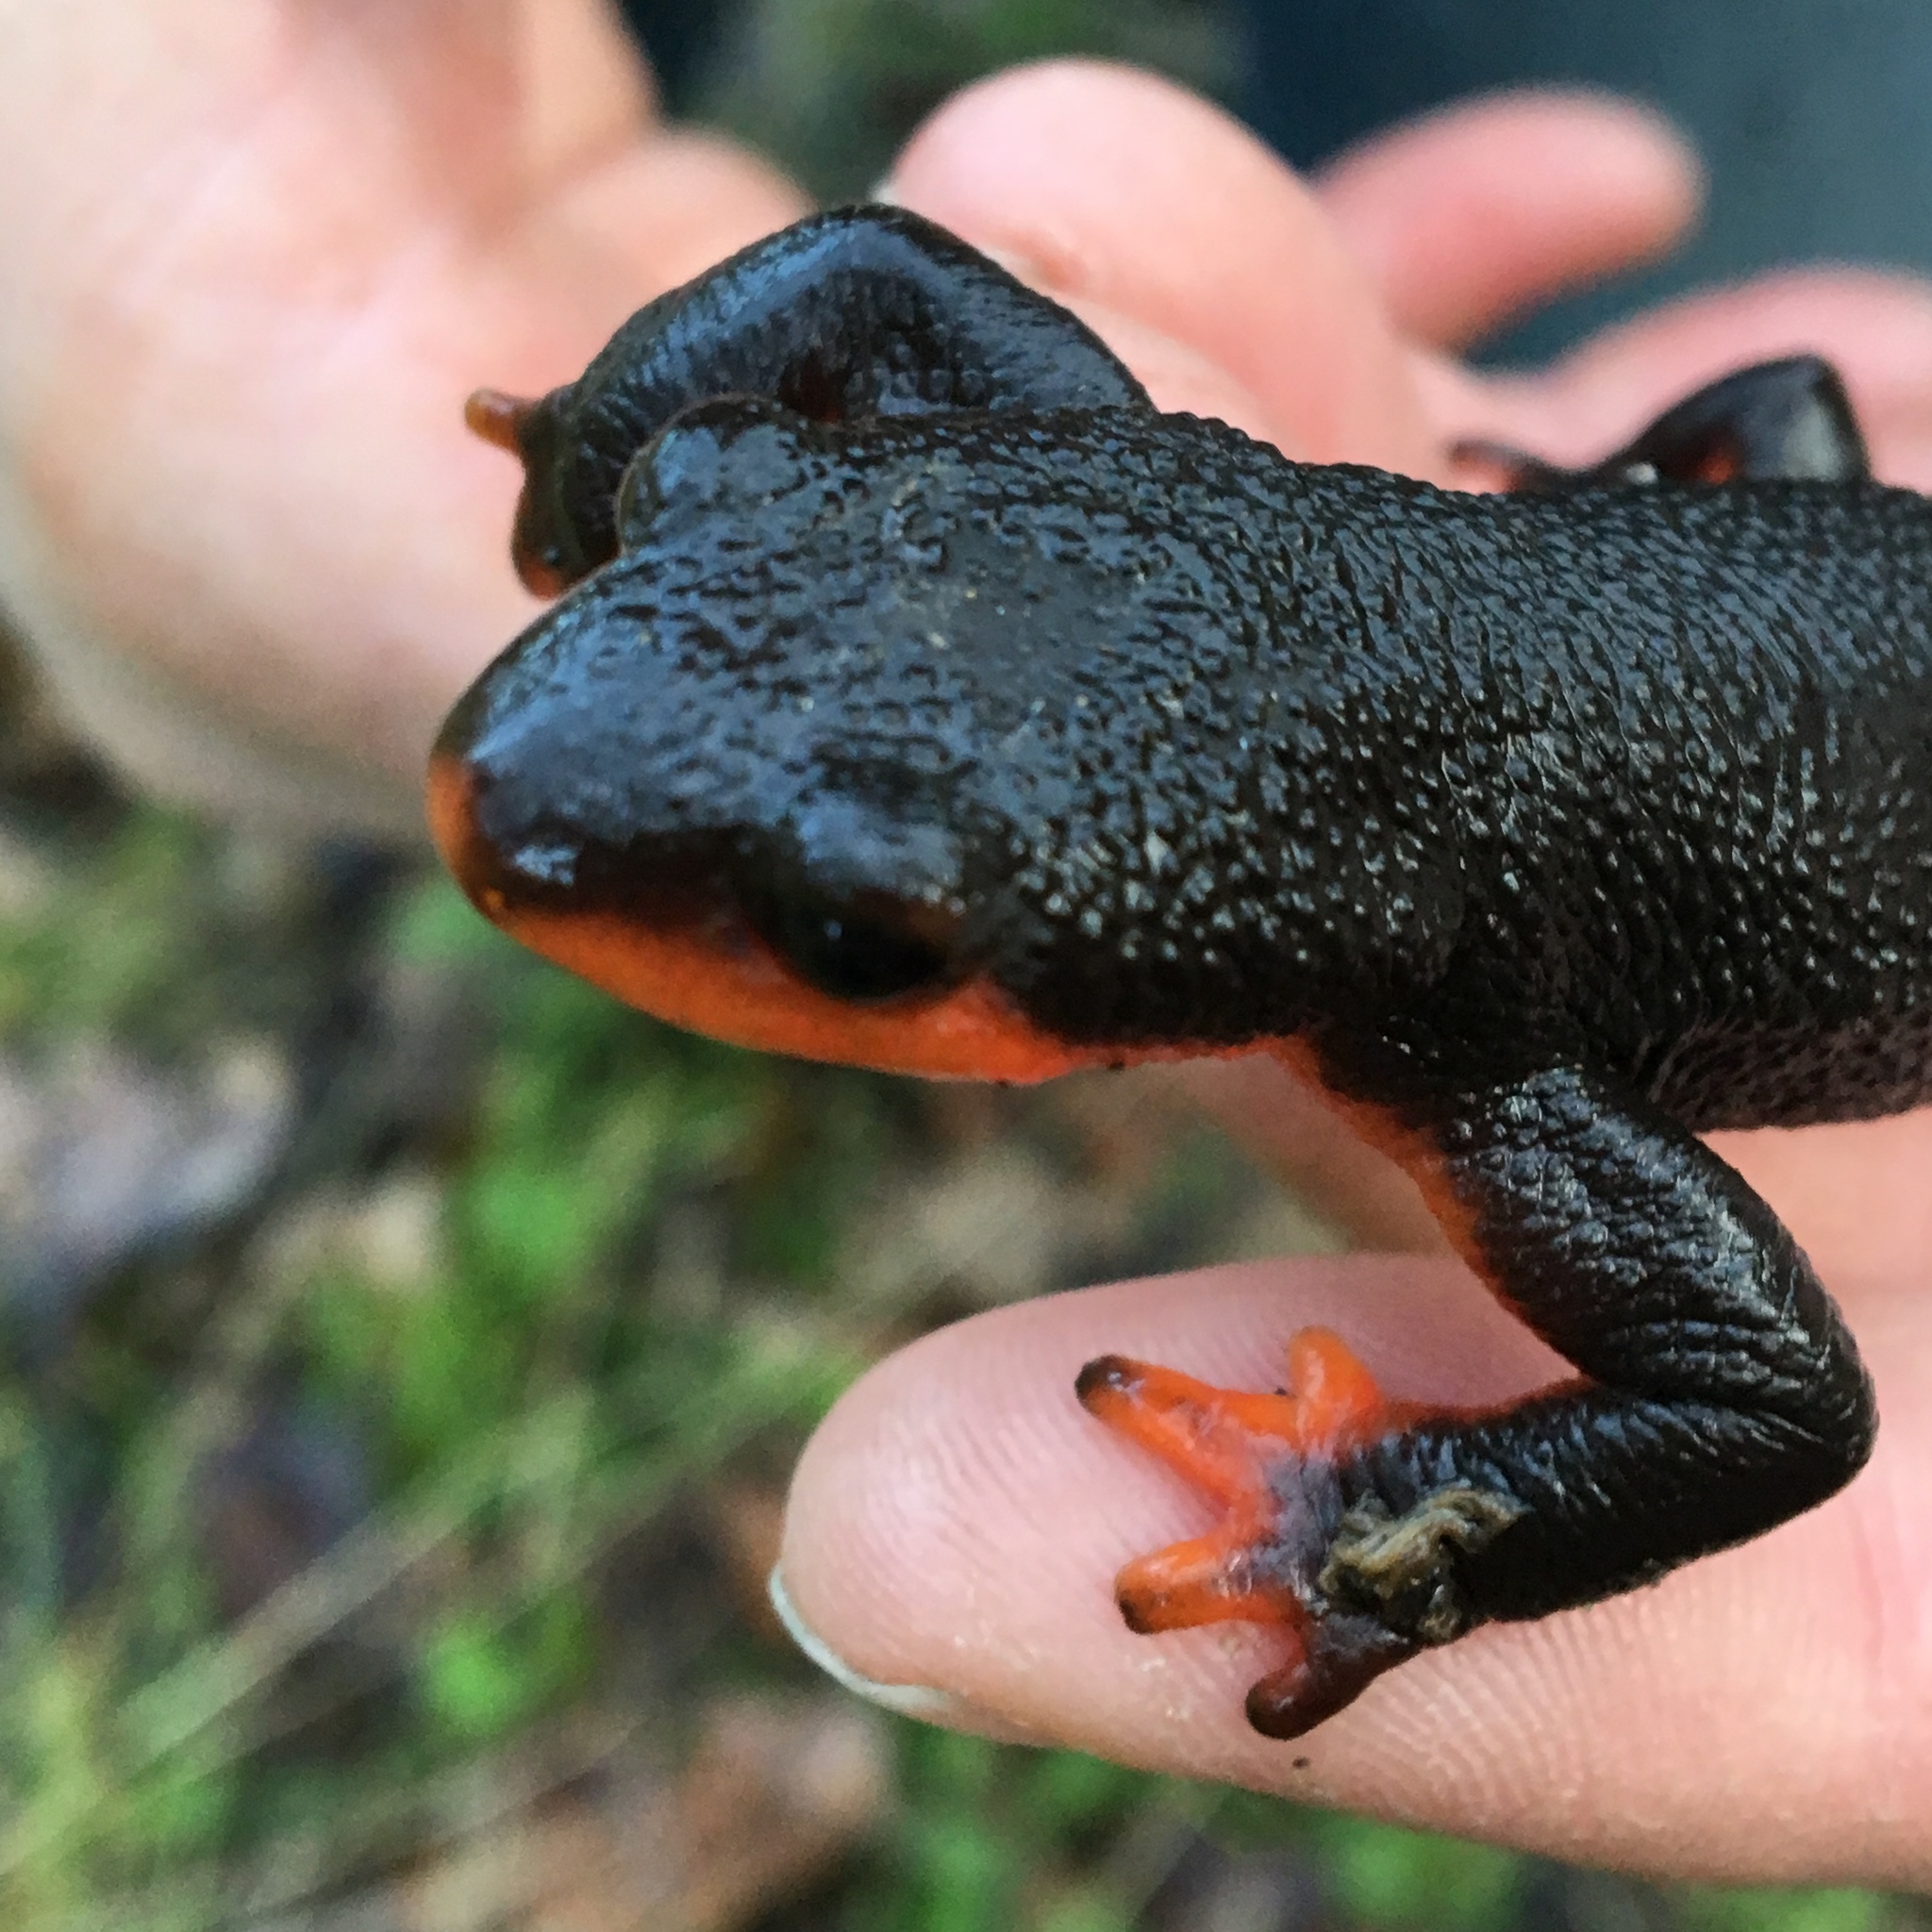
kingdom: Animalia
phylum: Chordata
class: Amphibia
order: Caudata
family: Salamandridae
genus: Taricha
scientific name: Taricha rivularis
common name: Red-bellied newt
